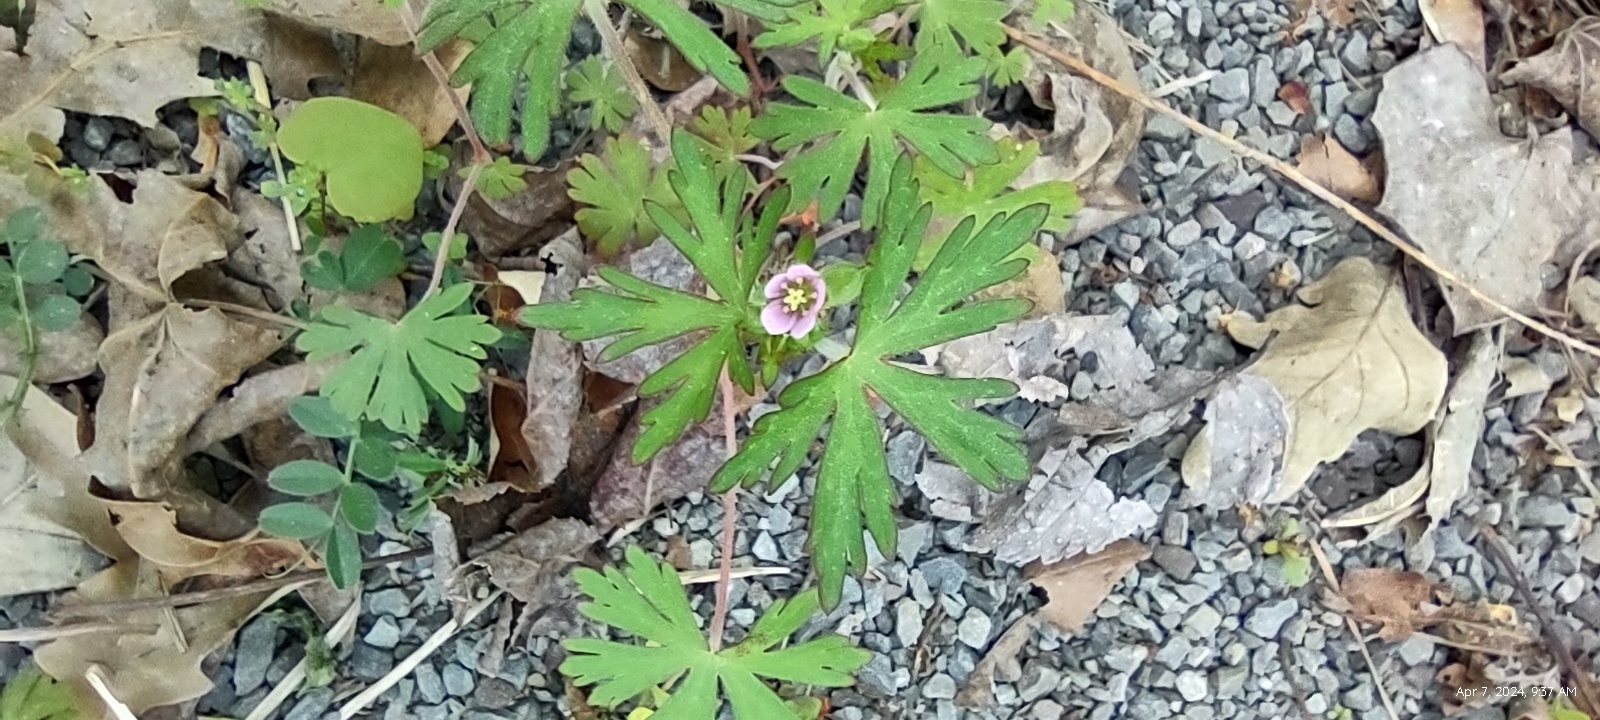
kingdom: Plantae
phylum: Tracheophyta
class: Magnoliopsida
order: Geraniales
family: Geraniaceae
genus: Geranium
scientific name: Geranium carolinianum
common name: Carolina crane's-bill
